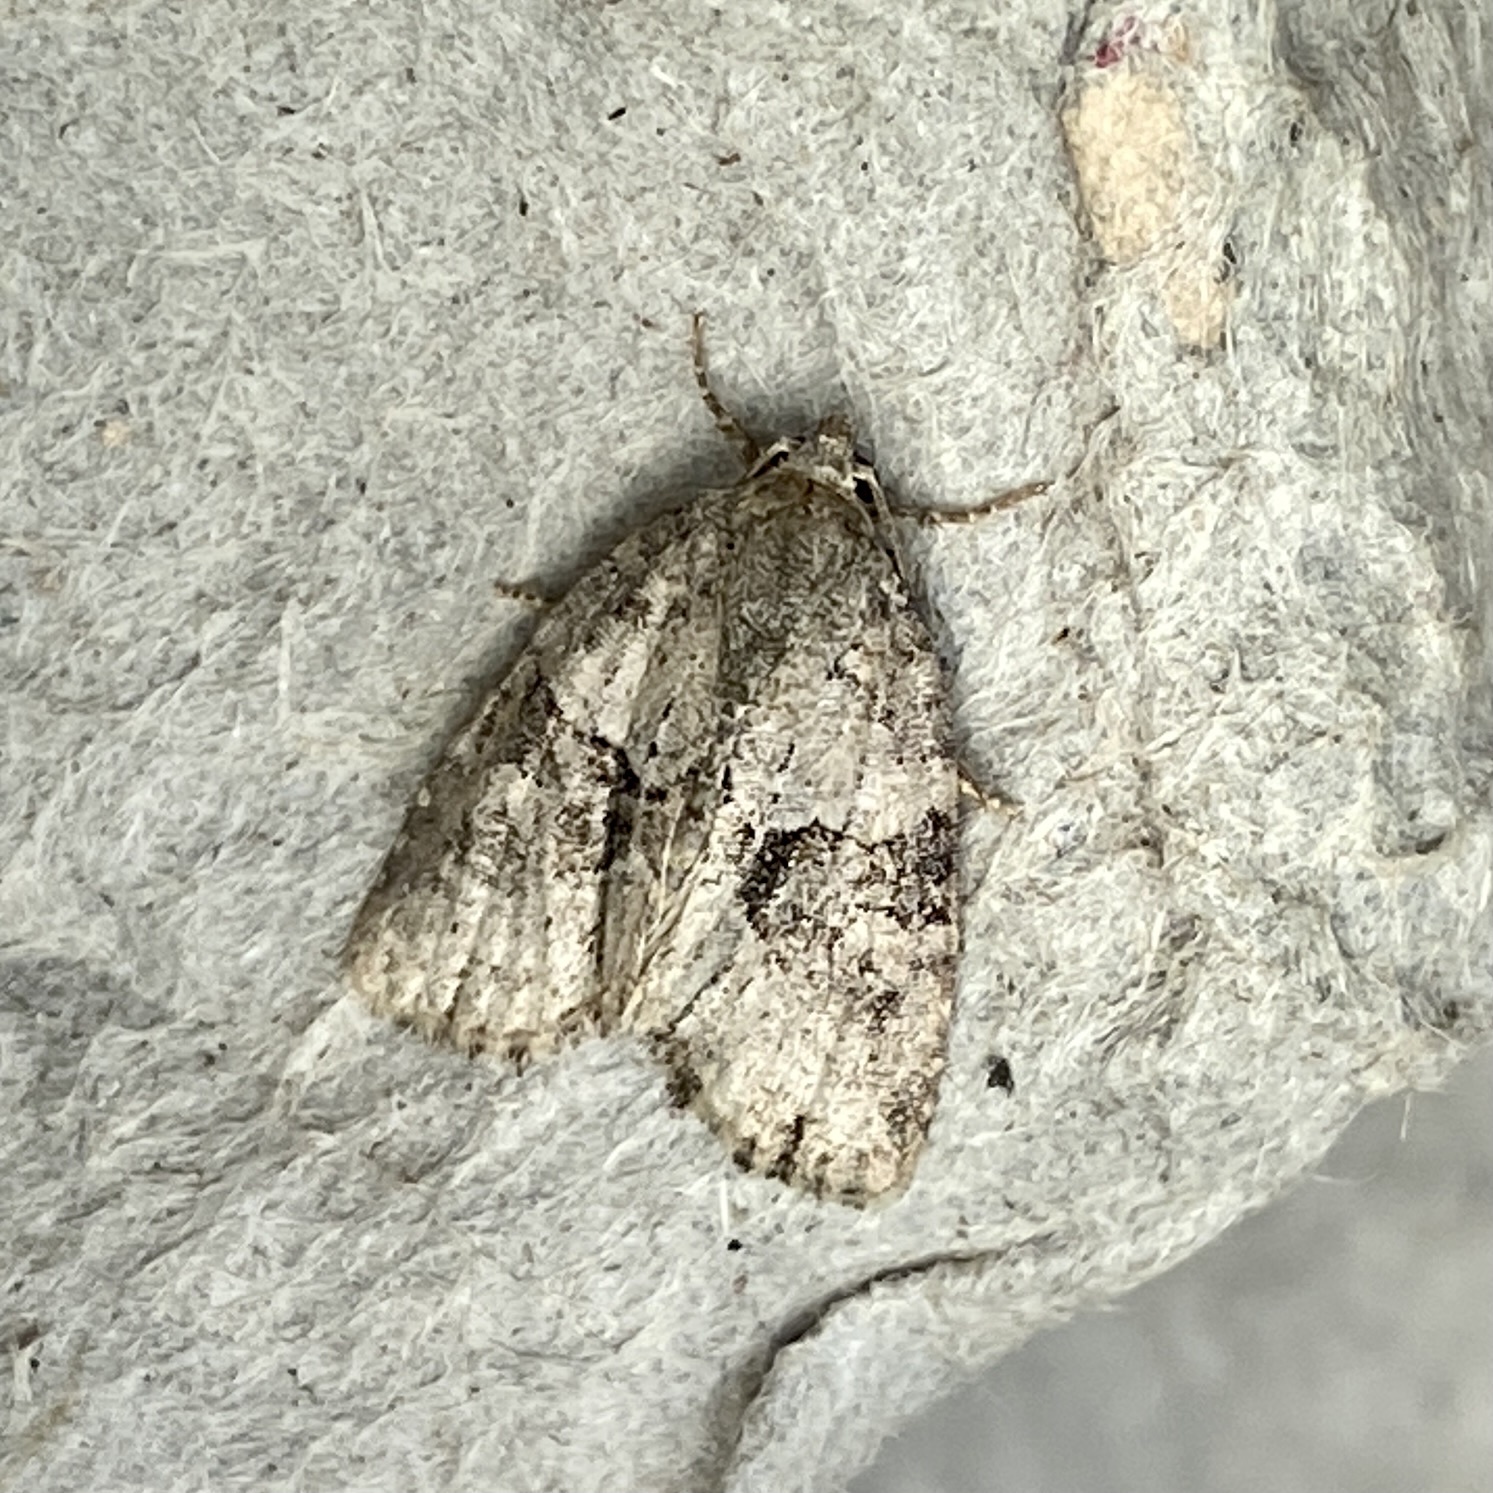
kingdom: Animalia
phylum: Arthropoda
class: Insecta
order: Lepidoptera
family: Noctuidae
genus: Neoligia
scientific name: Neoligia exhausta
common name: Exhausted brocade
